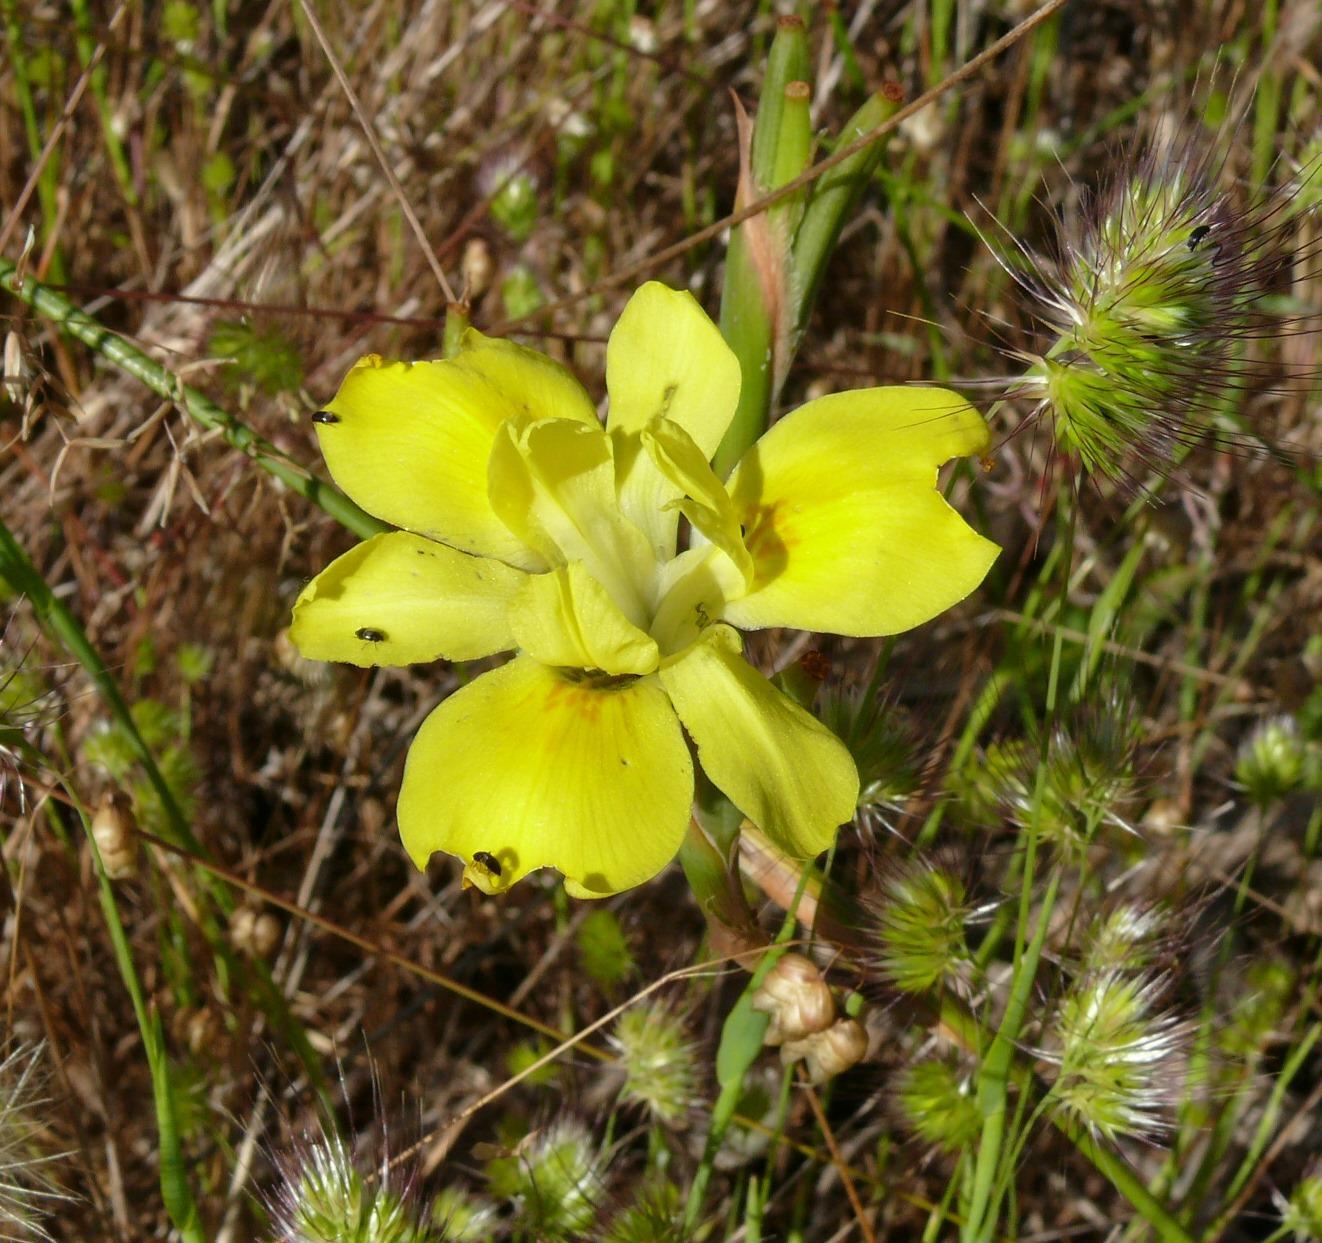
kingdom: Plantae
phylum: Tracheophyta
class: Liliopsida
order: Asparagales
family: Iridaceae
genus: Moraea
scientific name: Moraea fugax
